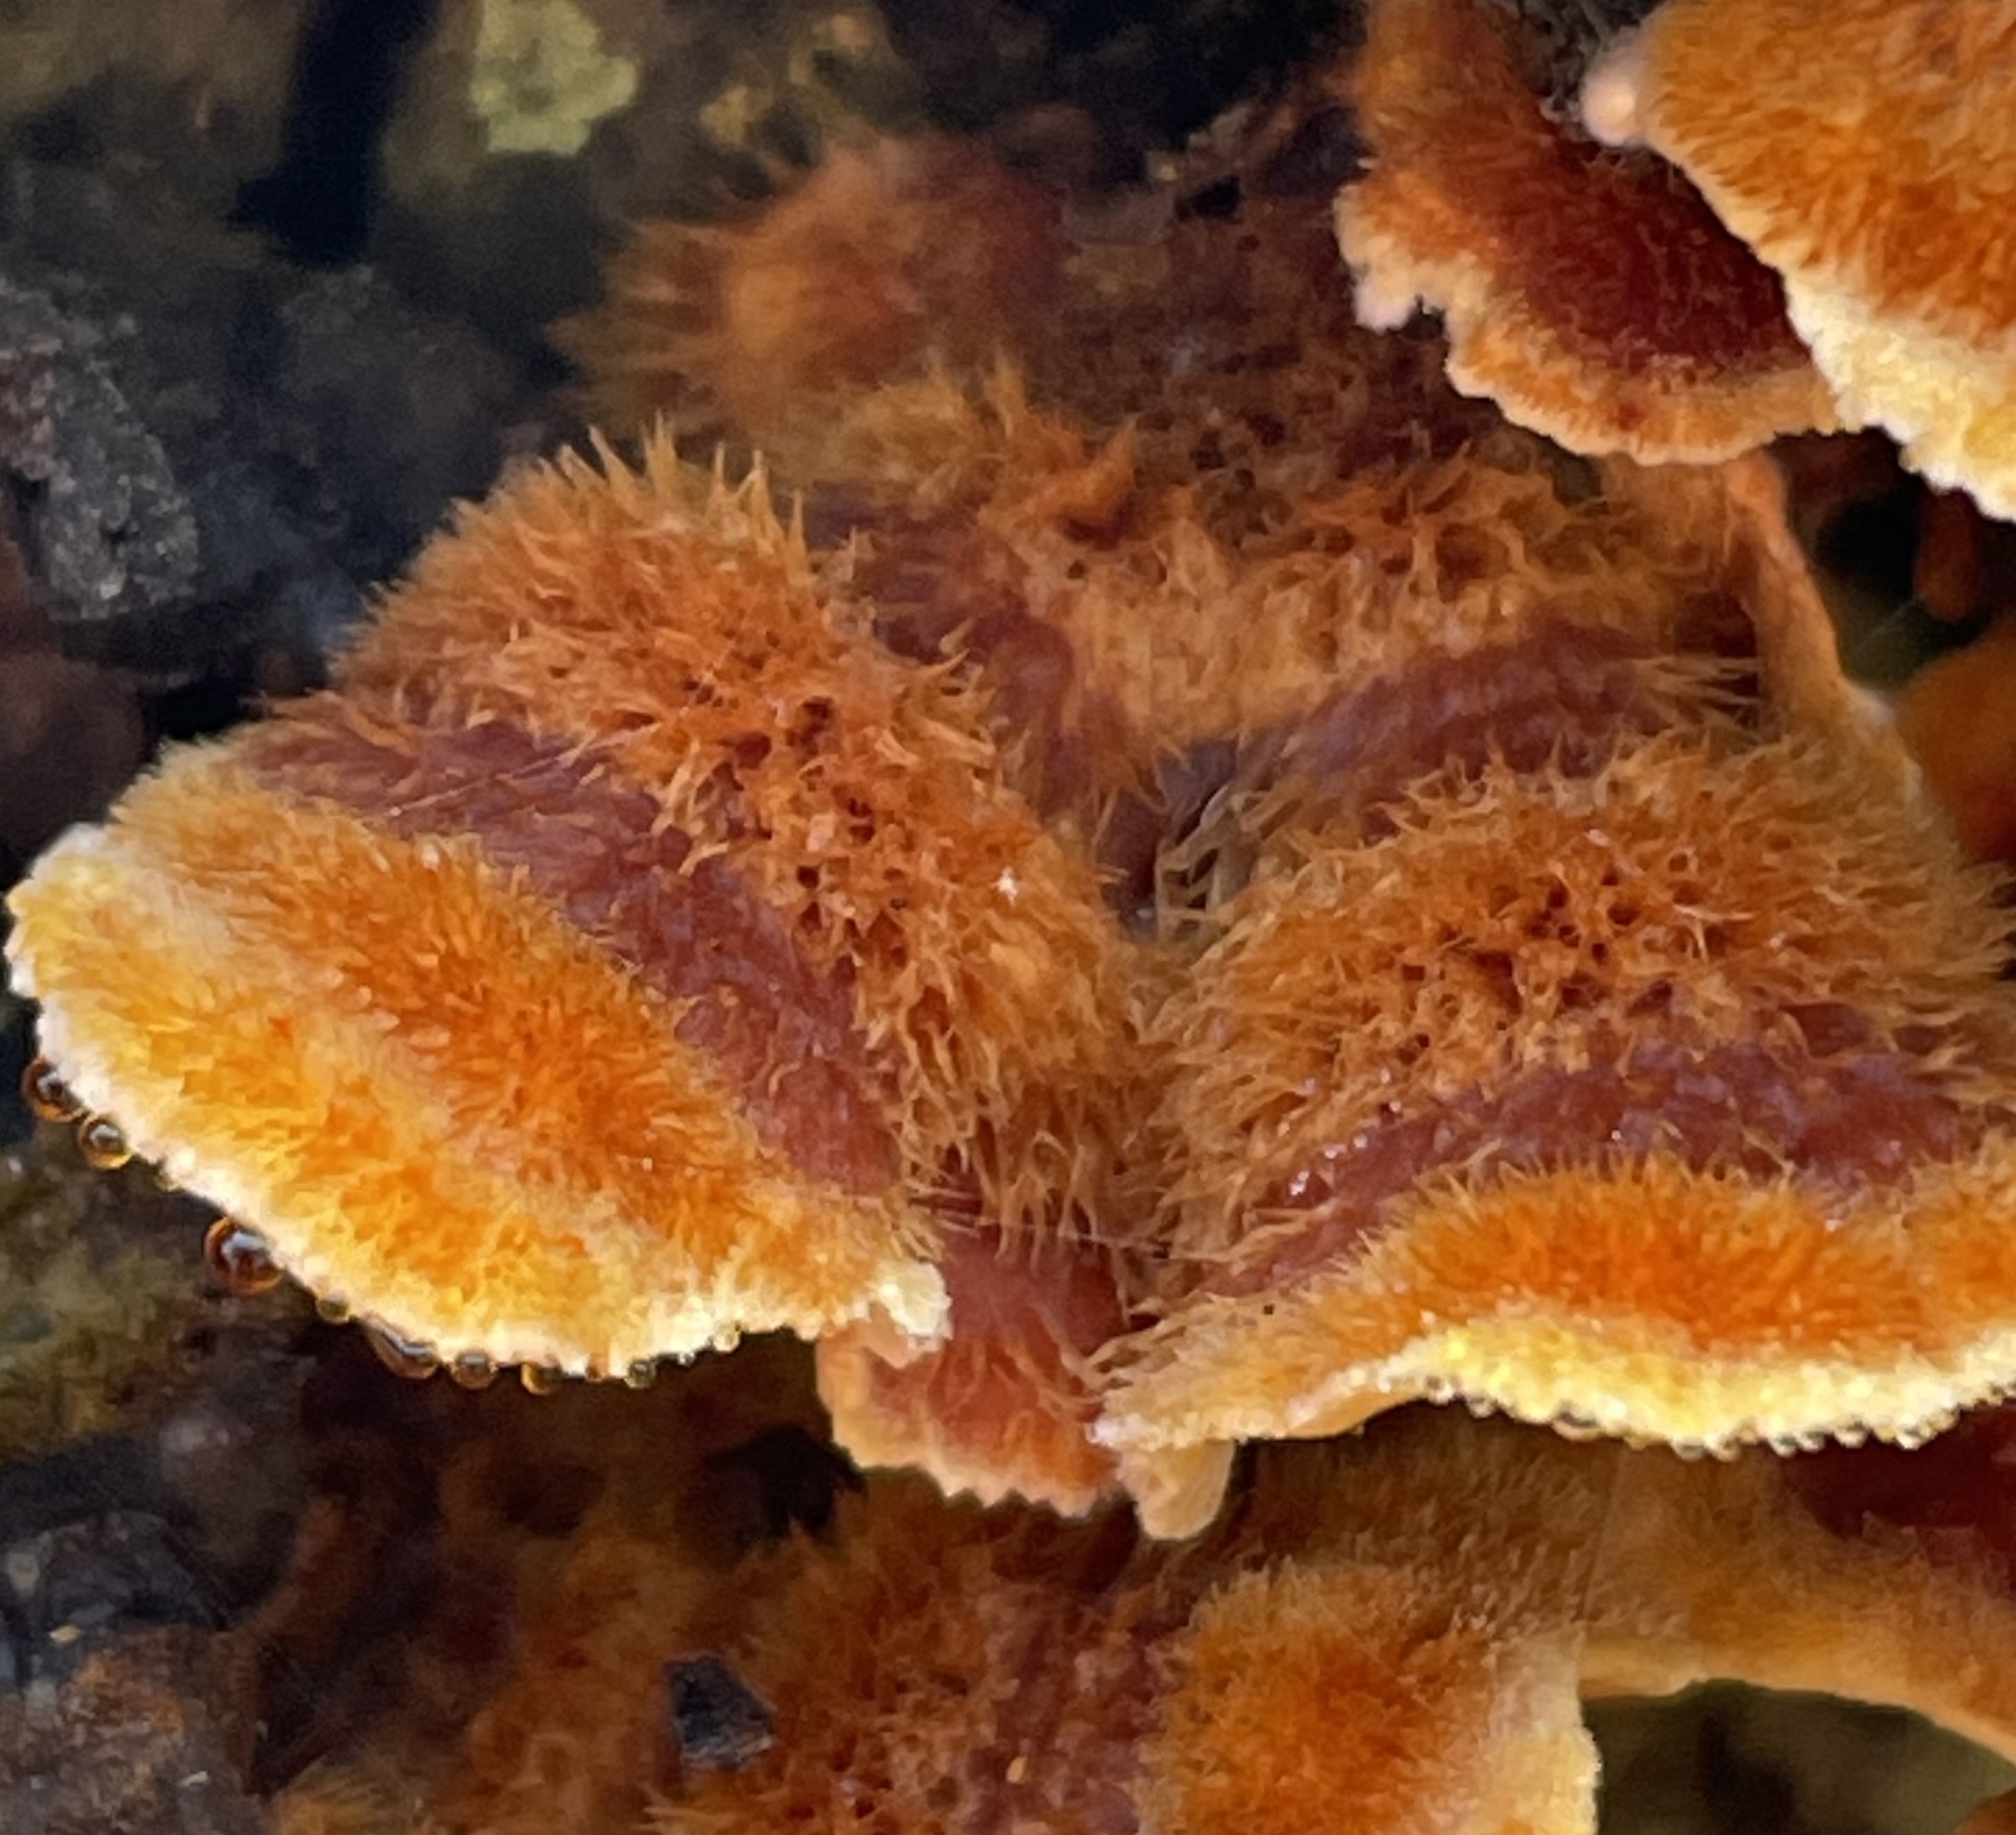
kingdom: Fungi
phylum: Basidiomycota
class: Agaricomycetes
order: Russulales
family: Stereaceae
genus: Stereum
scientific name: Stereum hirsutum
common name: Hairy curtain crust
